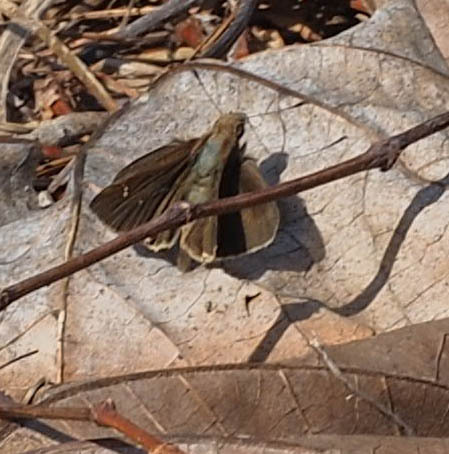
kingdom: Animalia
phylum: Arthropoda
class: Insecta
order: Lepidoptera
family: Hesperiidae
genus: Lerema
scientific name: Lerema accius
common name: Clouded skipper
